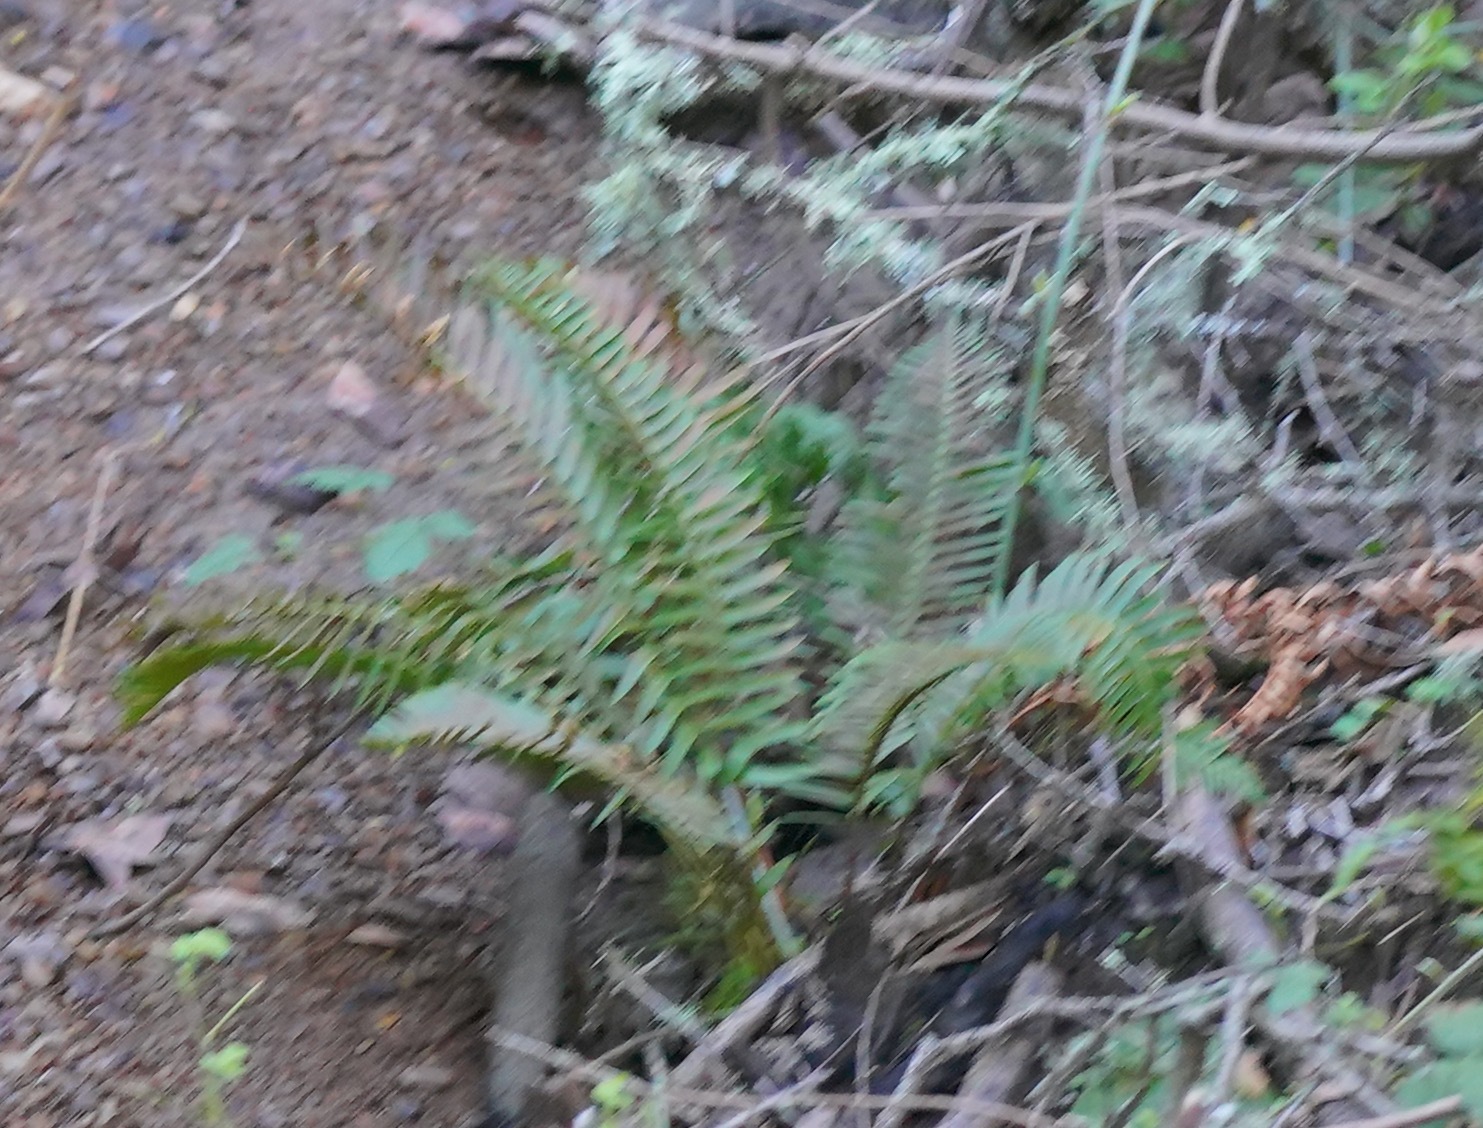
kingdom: Plantae
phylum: Tracheophyta
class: Polypodiopsida
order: Polypodiales
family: Dryopteridaceae
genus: Polystichum
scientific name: Polystichum munitum
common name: Western sword-fern
